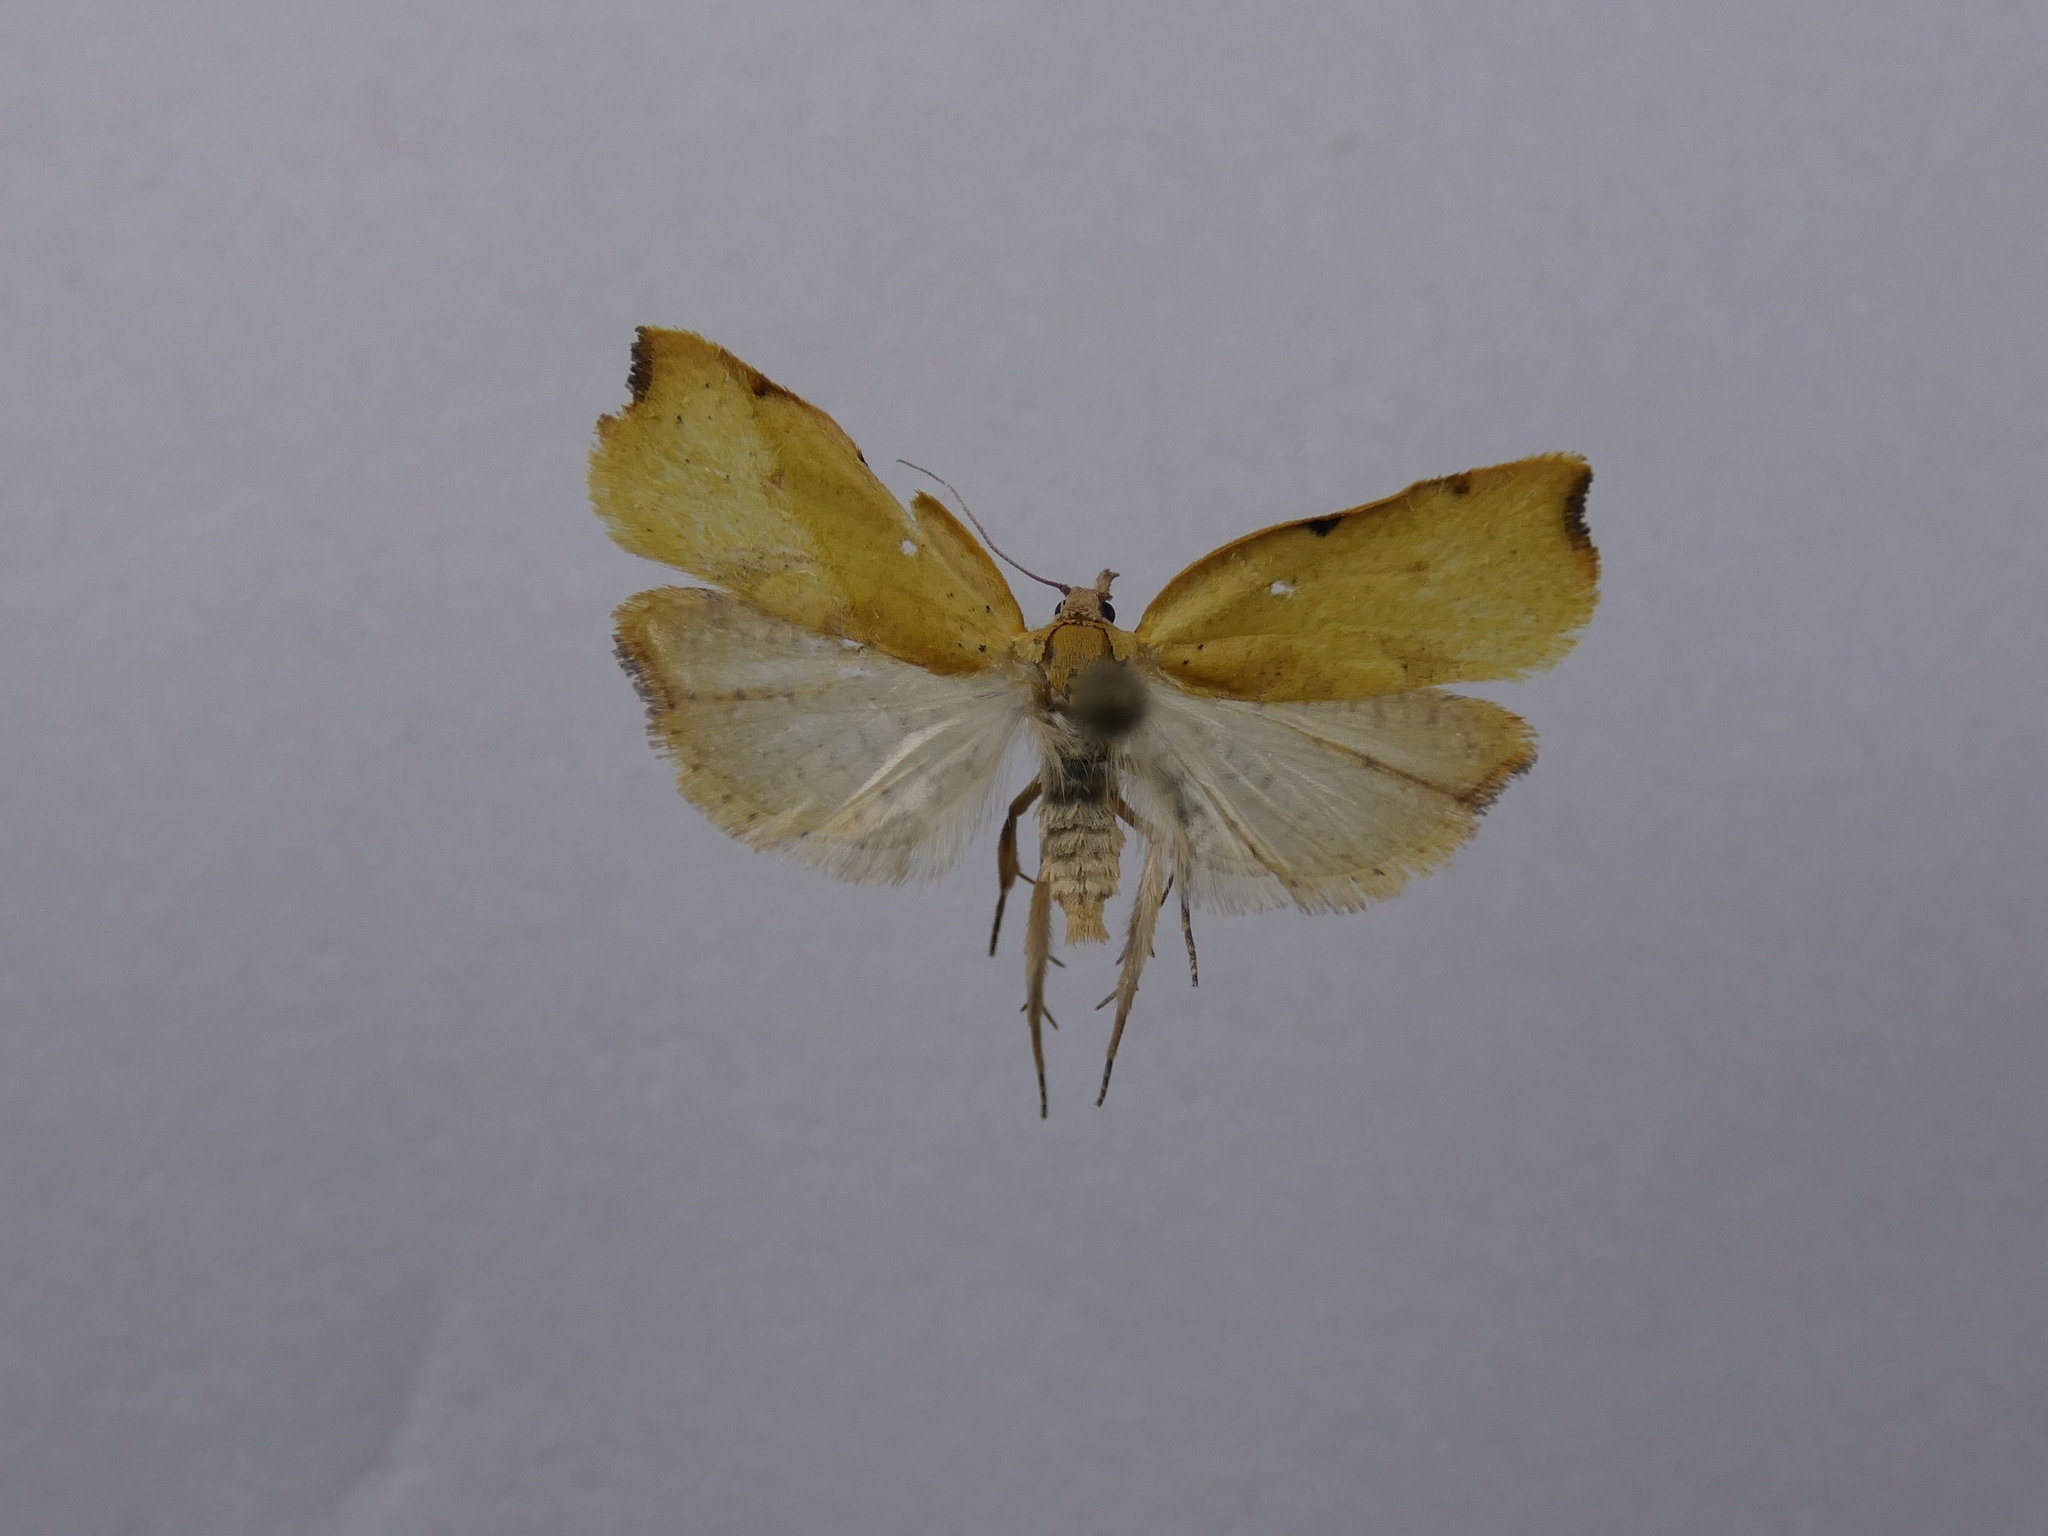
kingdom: Animalia
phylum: Arthropoda
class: Insecta
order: Lepidoptera
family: Tortricidae
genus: Apoctena
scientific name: Apoctena flavescens
